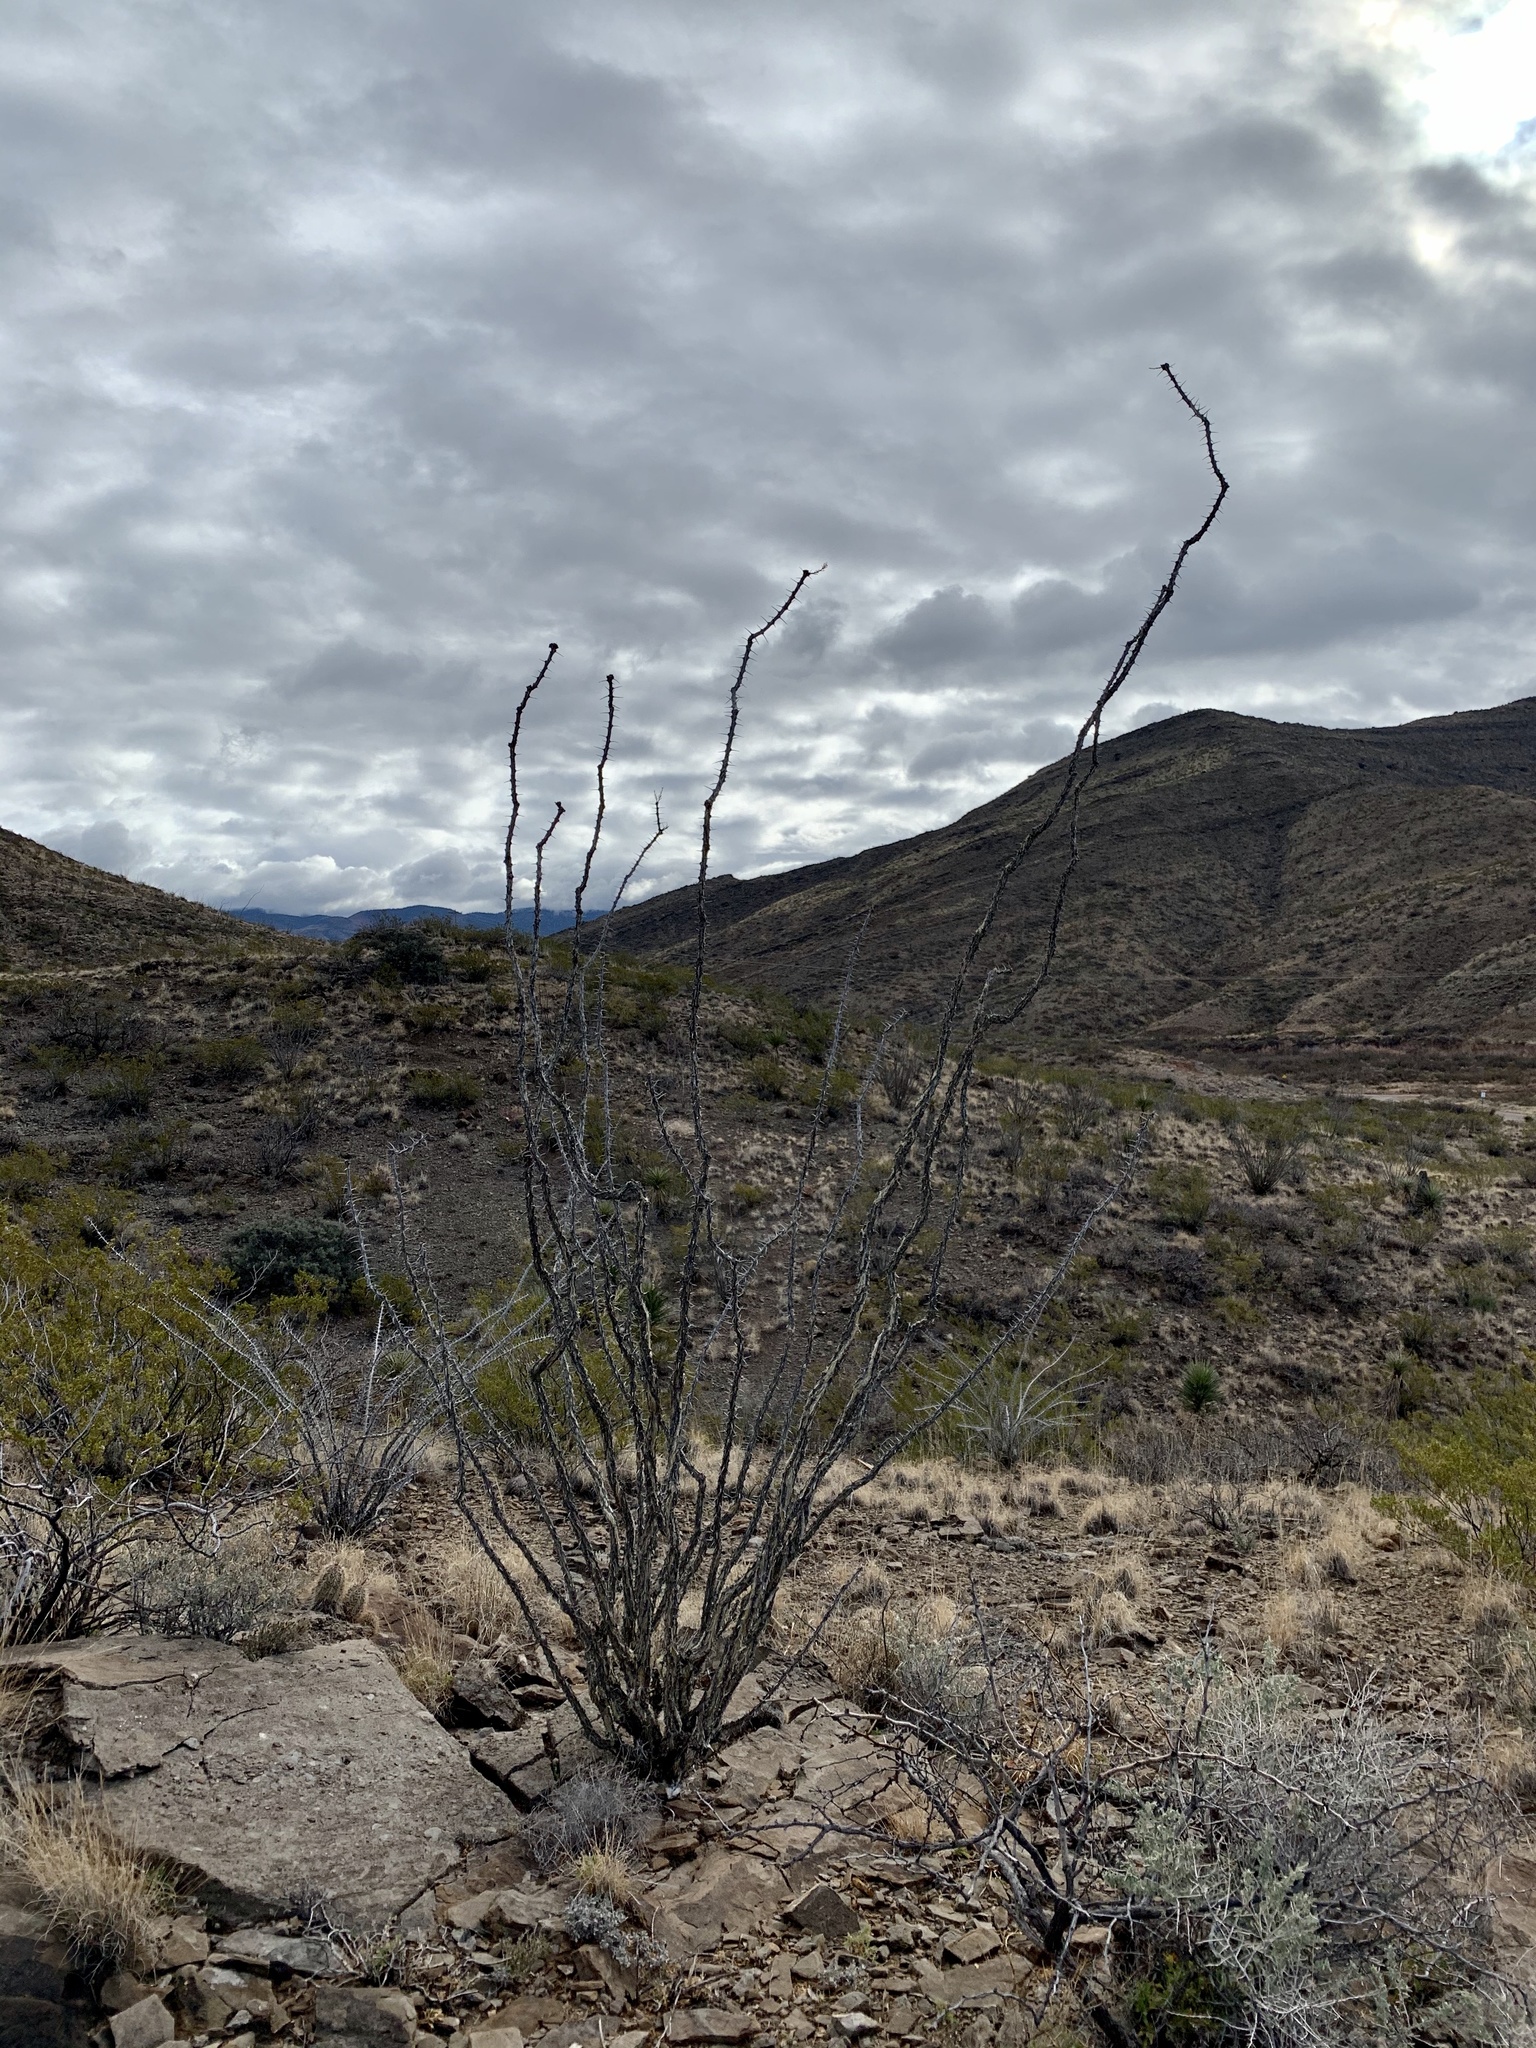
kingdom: Plantae
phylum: Tracheophyta
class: Magnoliopsida
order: Ericales
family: Fouquieriaceae
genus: Fouquieria
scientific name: Fouquieria splendens
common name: Vine-cactus
